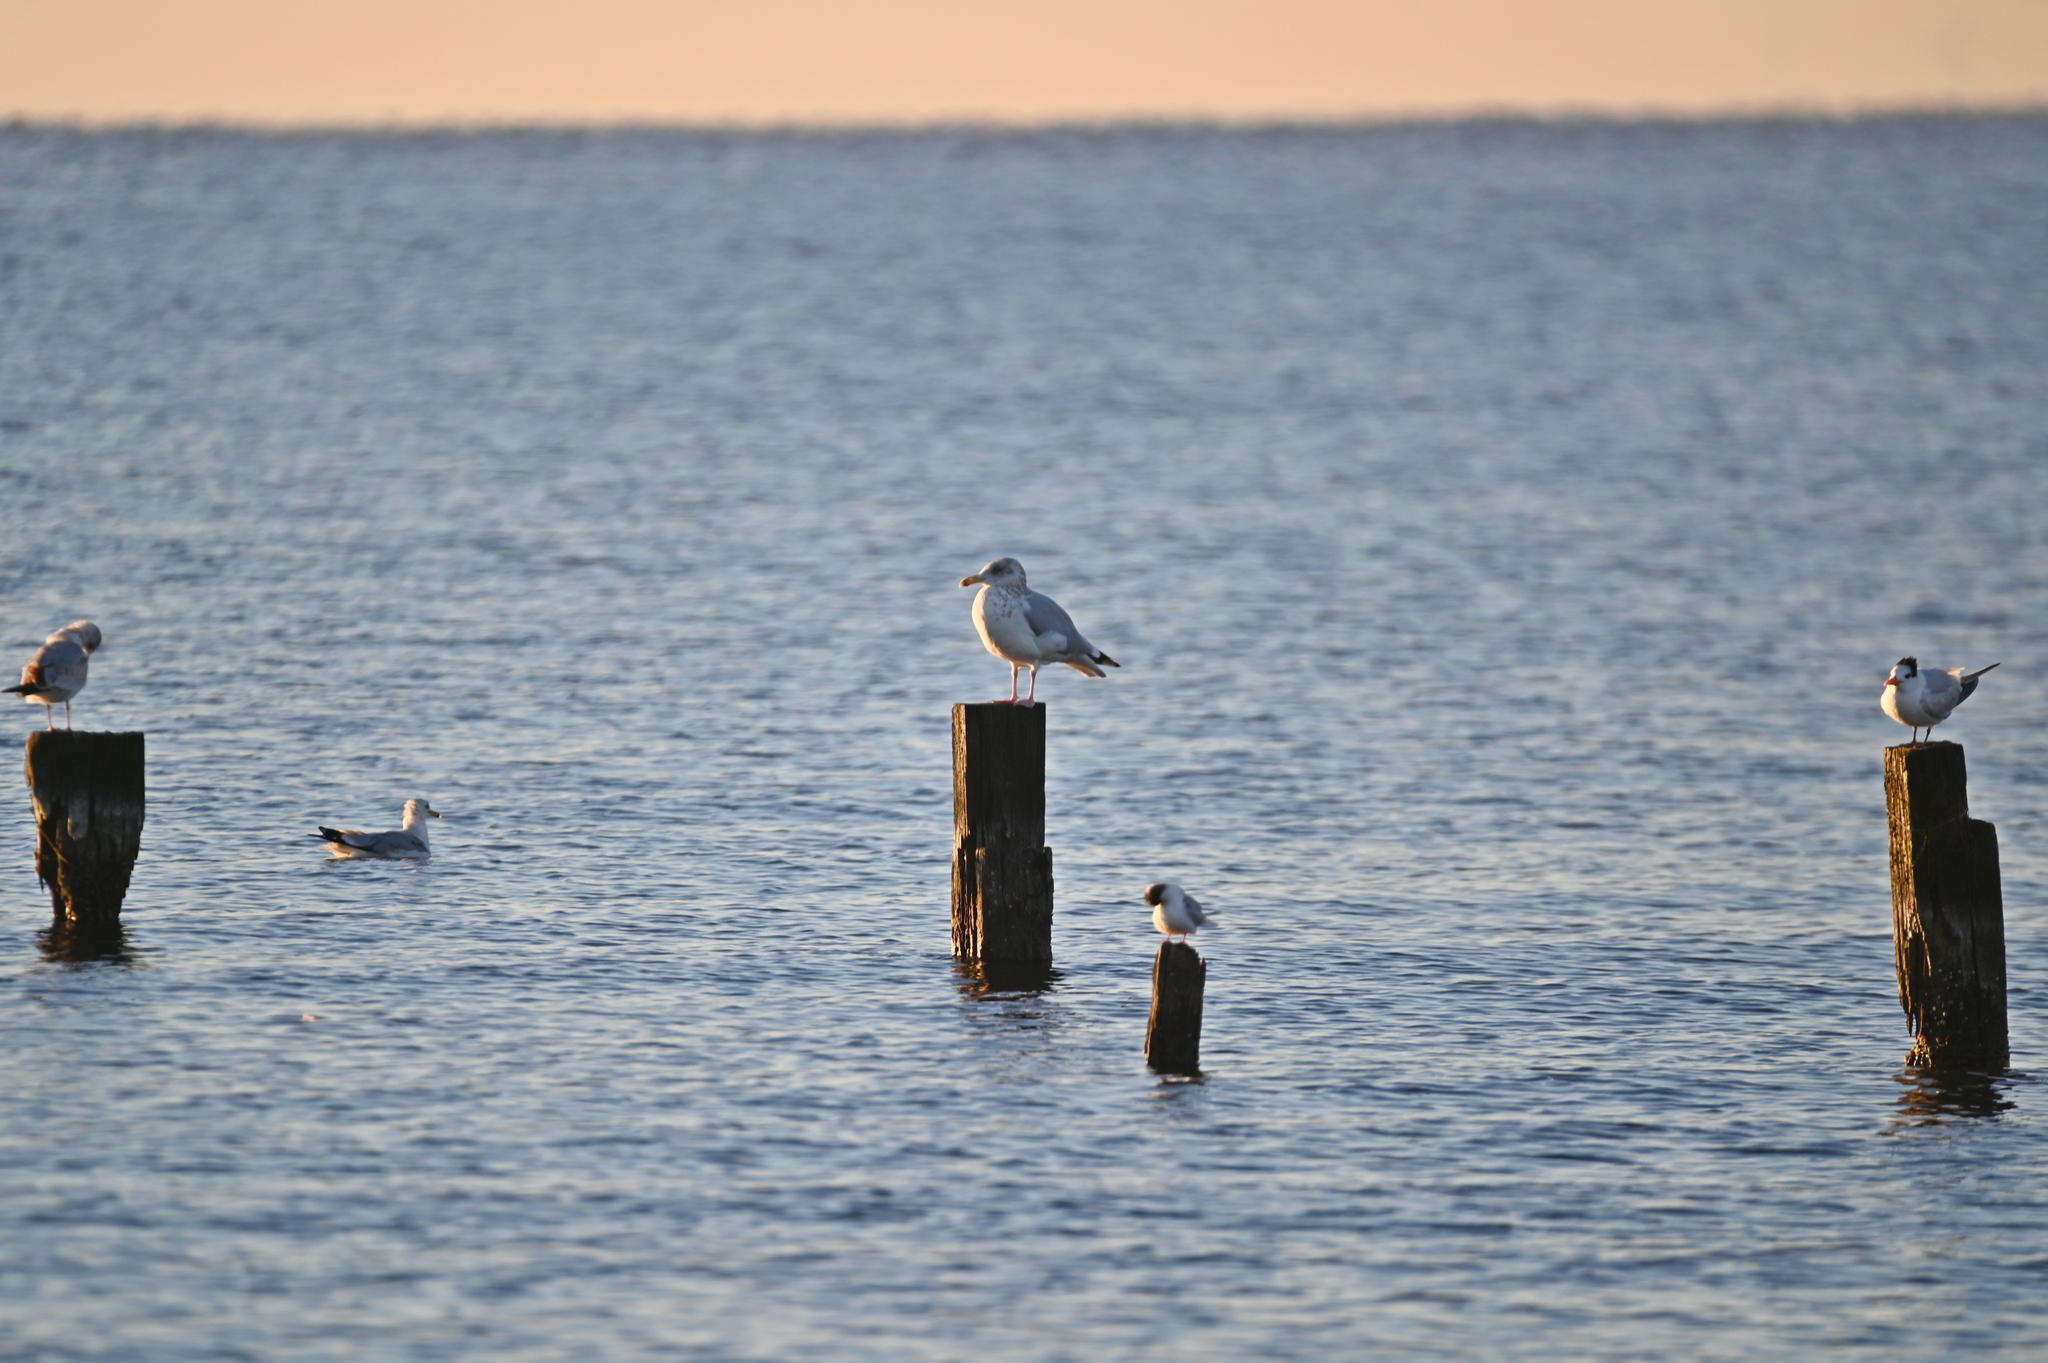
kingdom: Animalia
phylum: Chordata
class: Aves
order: Charadriiformes
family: Laridae
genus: Larus
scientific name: Larus argentatus
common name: Herring gull
